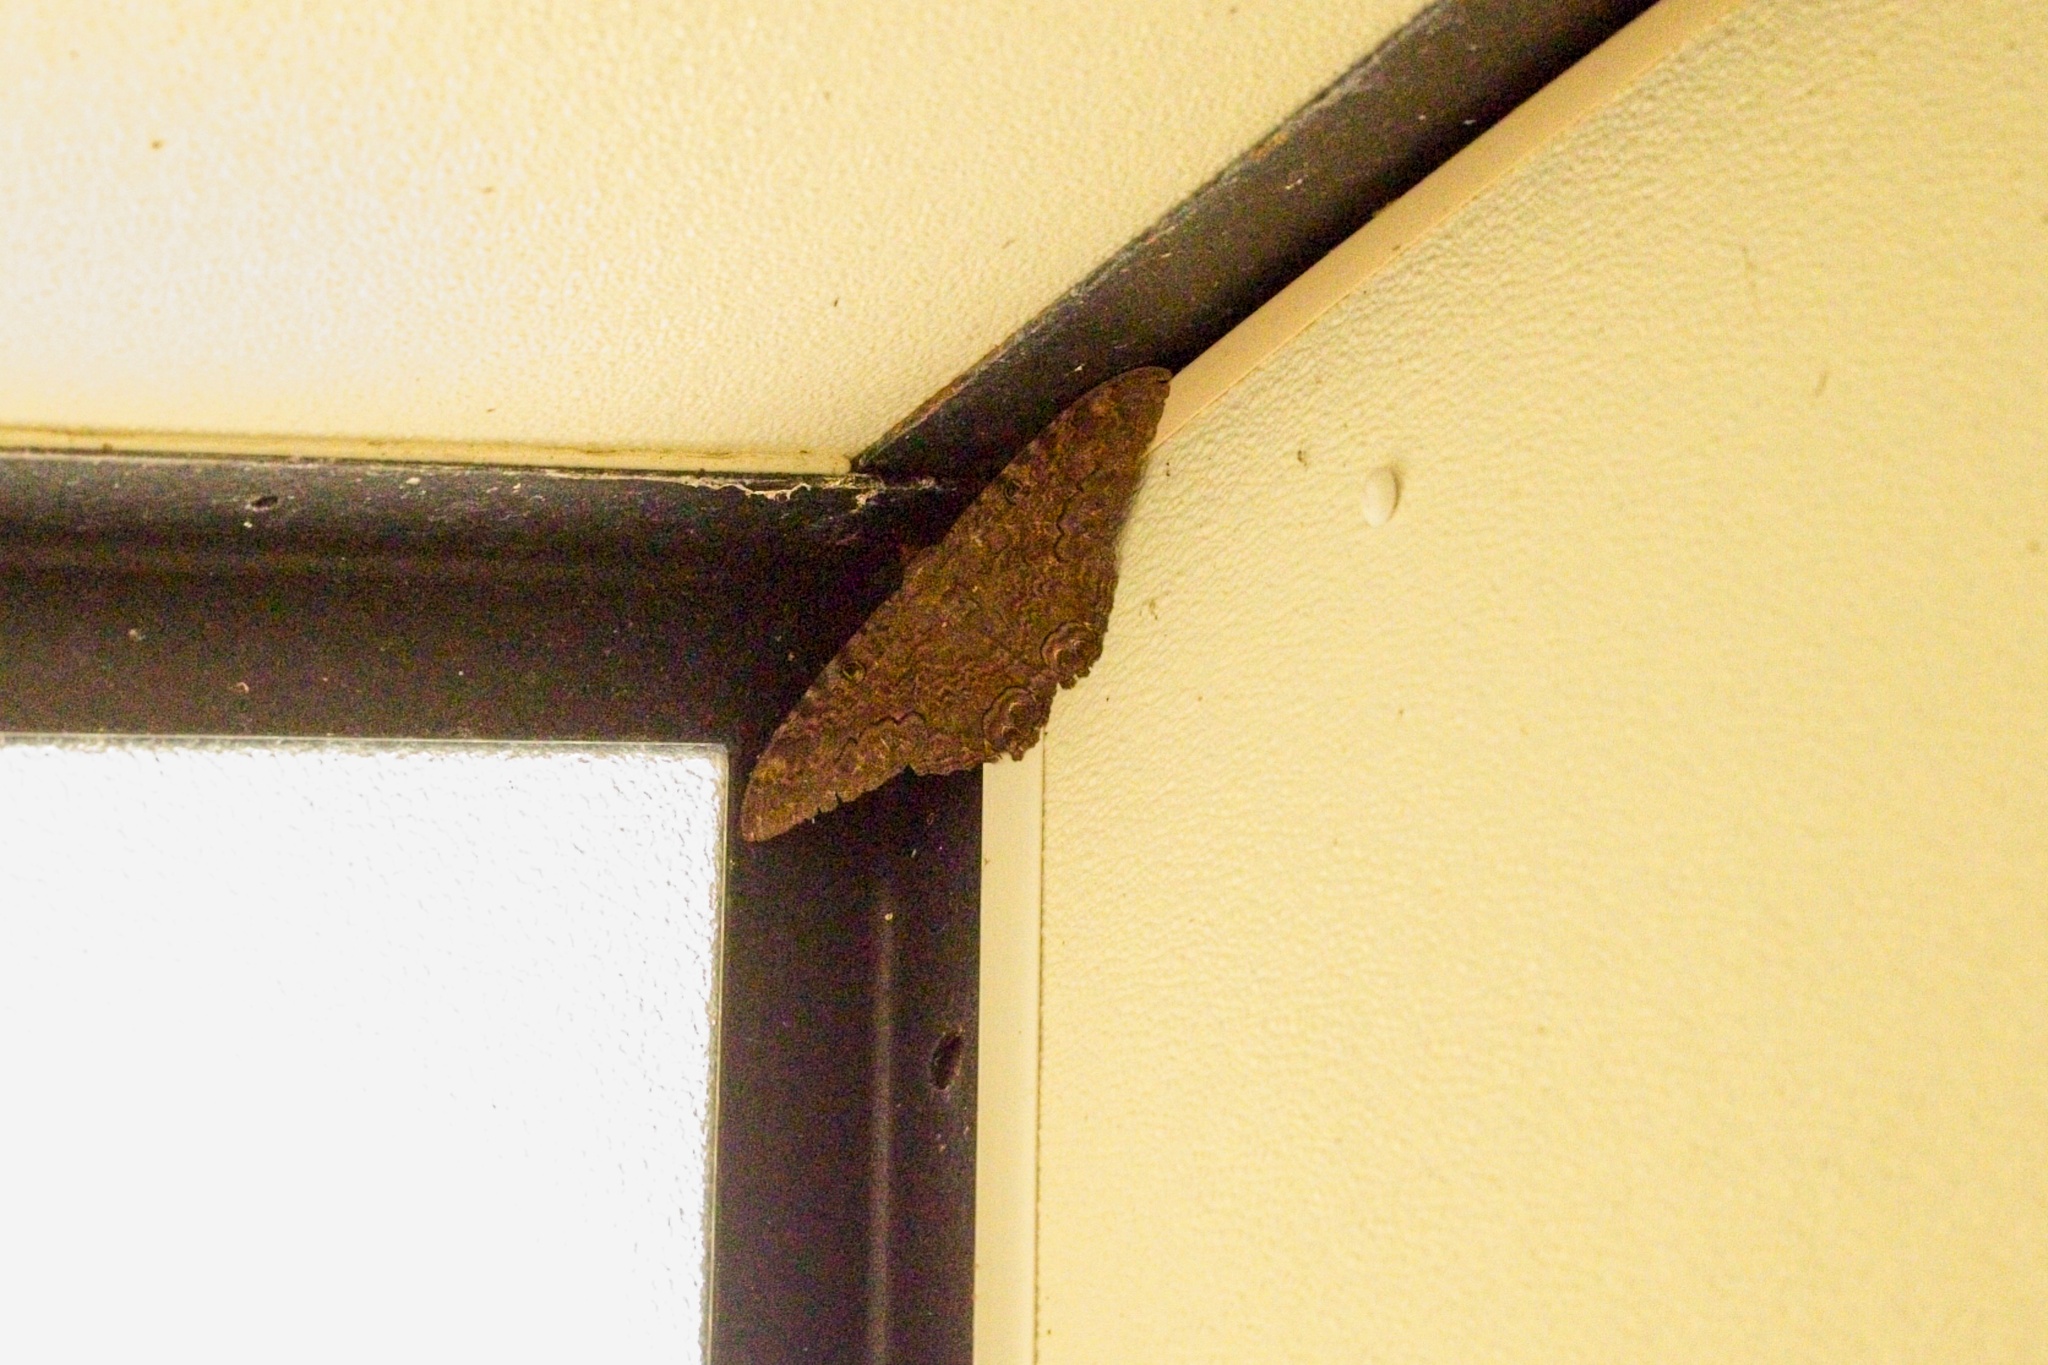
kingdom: Animalia
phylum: Arthropoda
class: Insecta
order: Lepidoptera
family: Erebidae
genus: Ascalapha
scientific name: Ascalapha odorata
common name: Black witch
